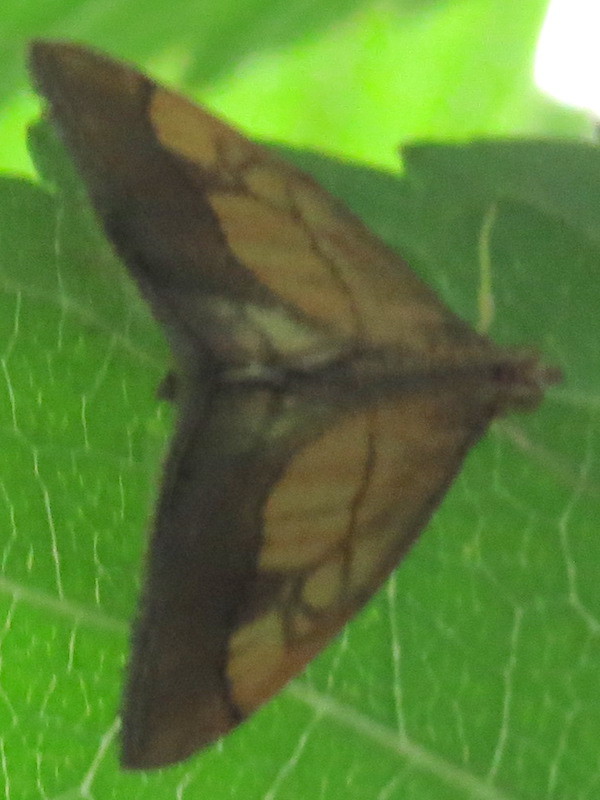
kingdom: Animalia
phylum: Arthropoda
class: Insecta
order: Lepidoptera
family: Crambidae
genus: Evergestis
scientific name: Evergestis limbata
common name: Dark bordered pearl
